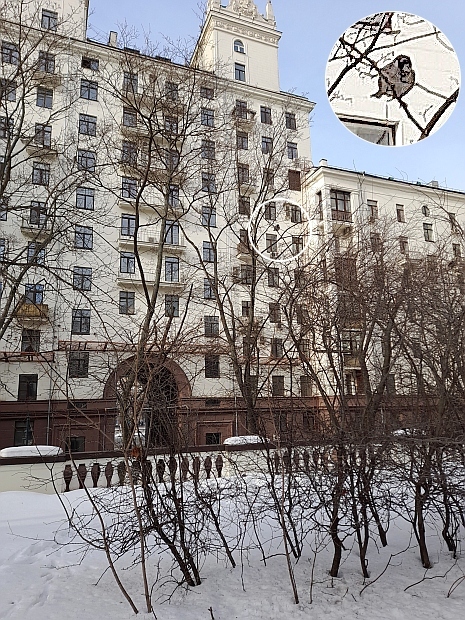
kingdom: Animalia
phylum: Chordata
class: Aves
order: Passeriformes
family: Passeridae
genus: Passer
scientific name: Passer montanus
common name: Eurasian tree sparrow
